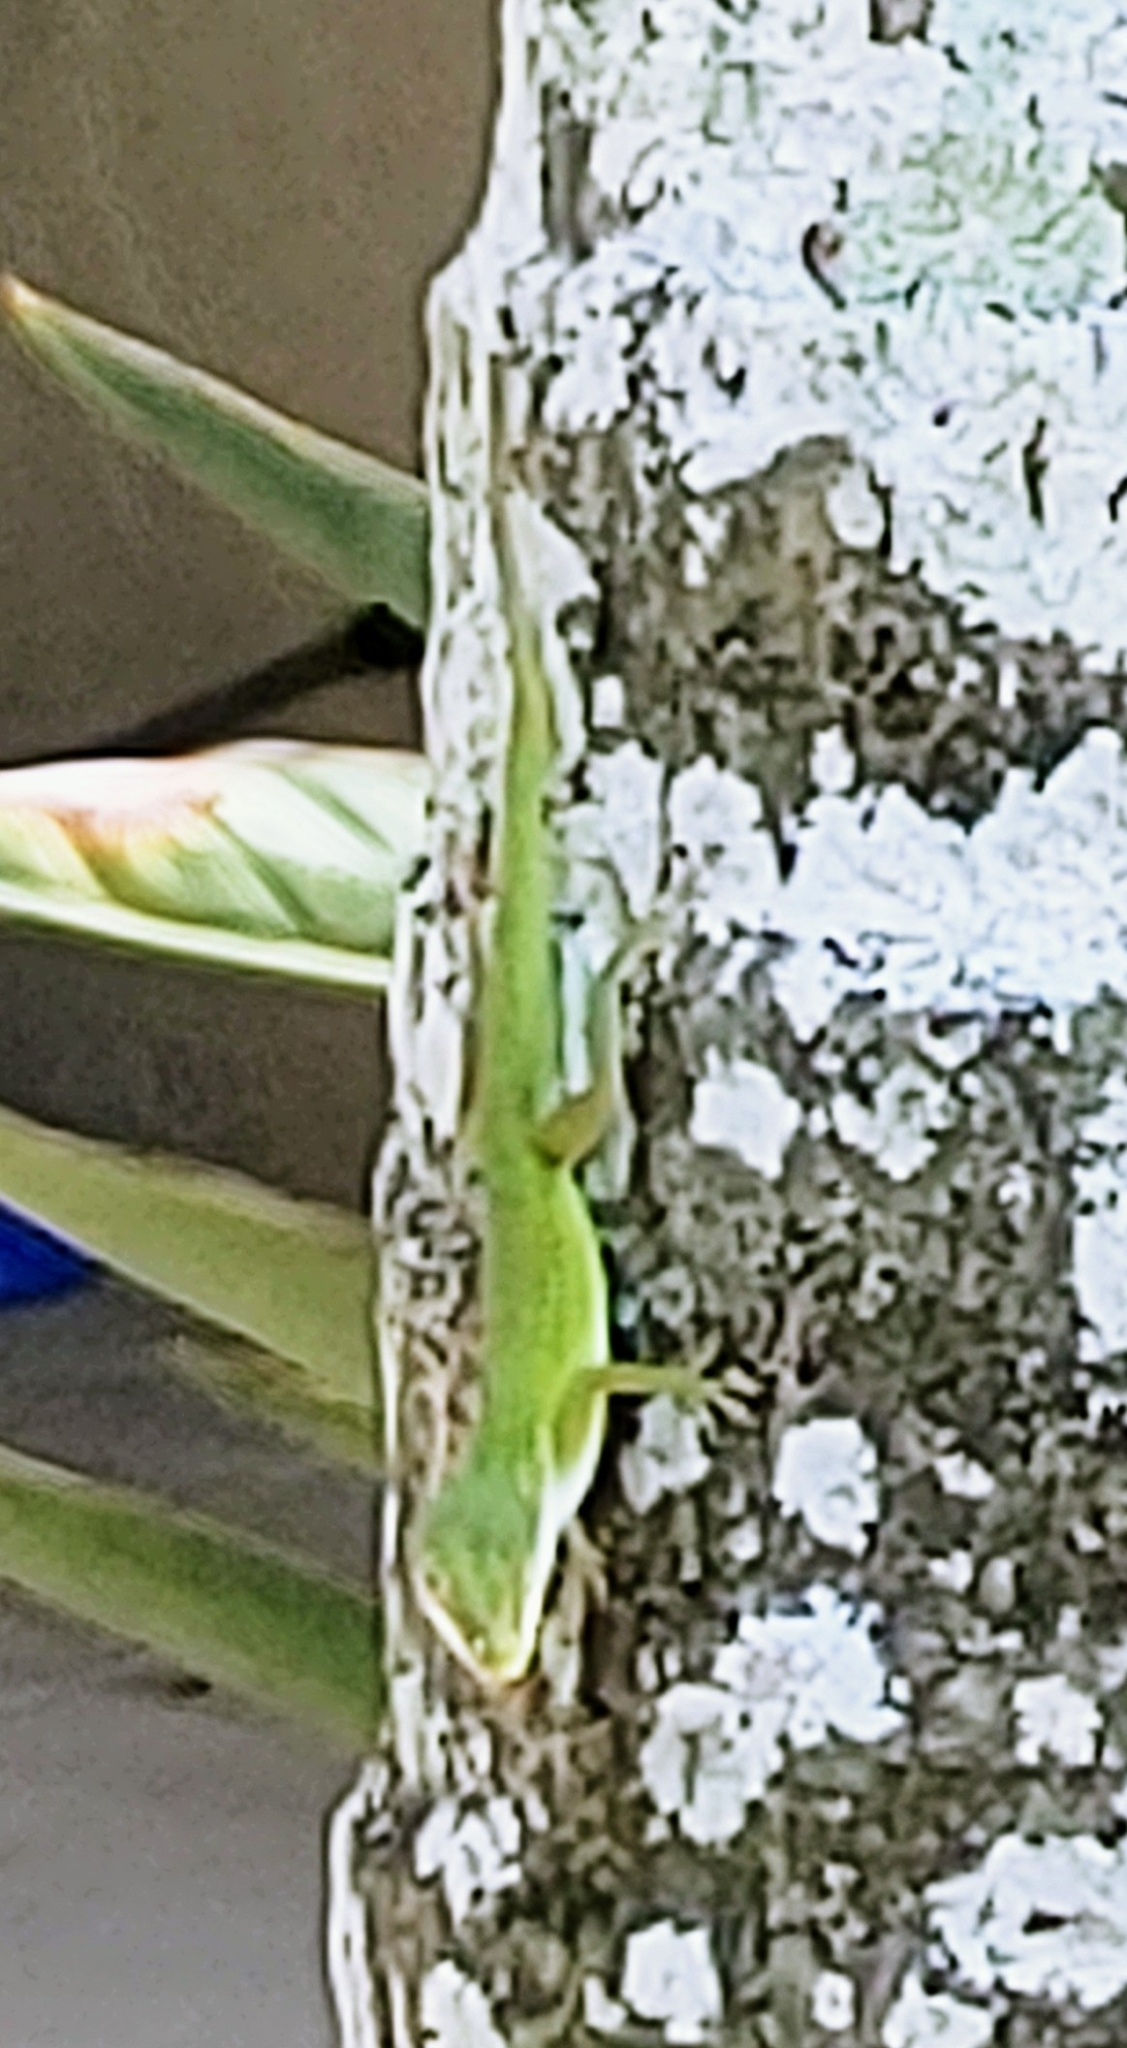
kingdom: Animalia
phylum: Chordata
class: Squamata
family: Dactyloidae
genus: Anolis
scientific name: Anolis carolinensis
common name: Green anole
